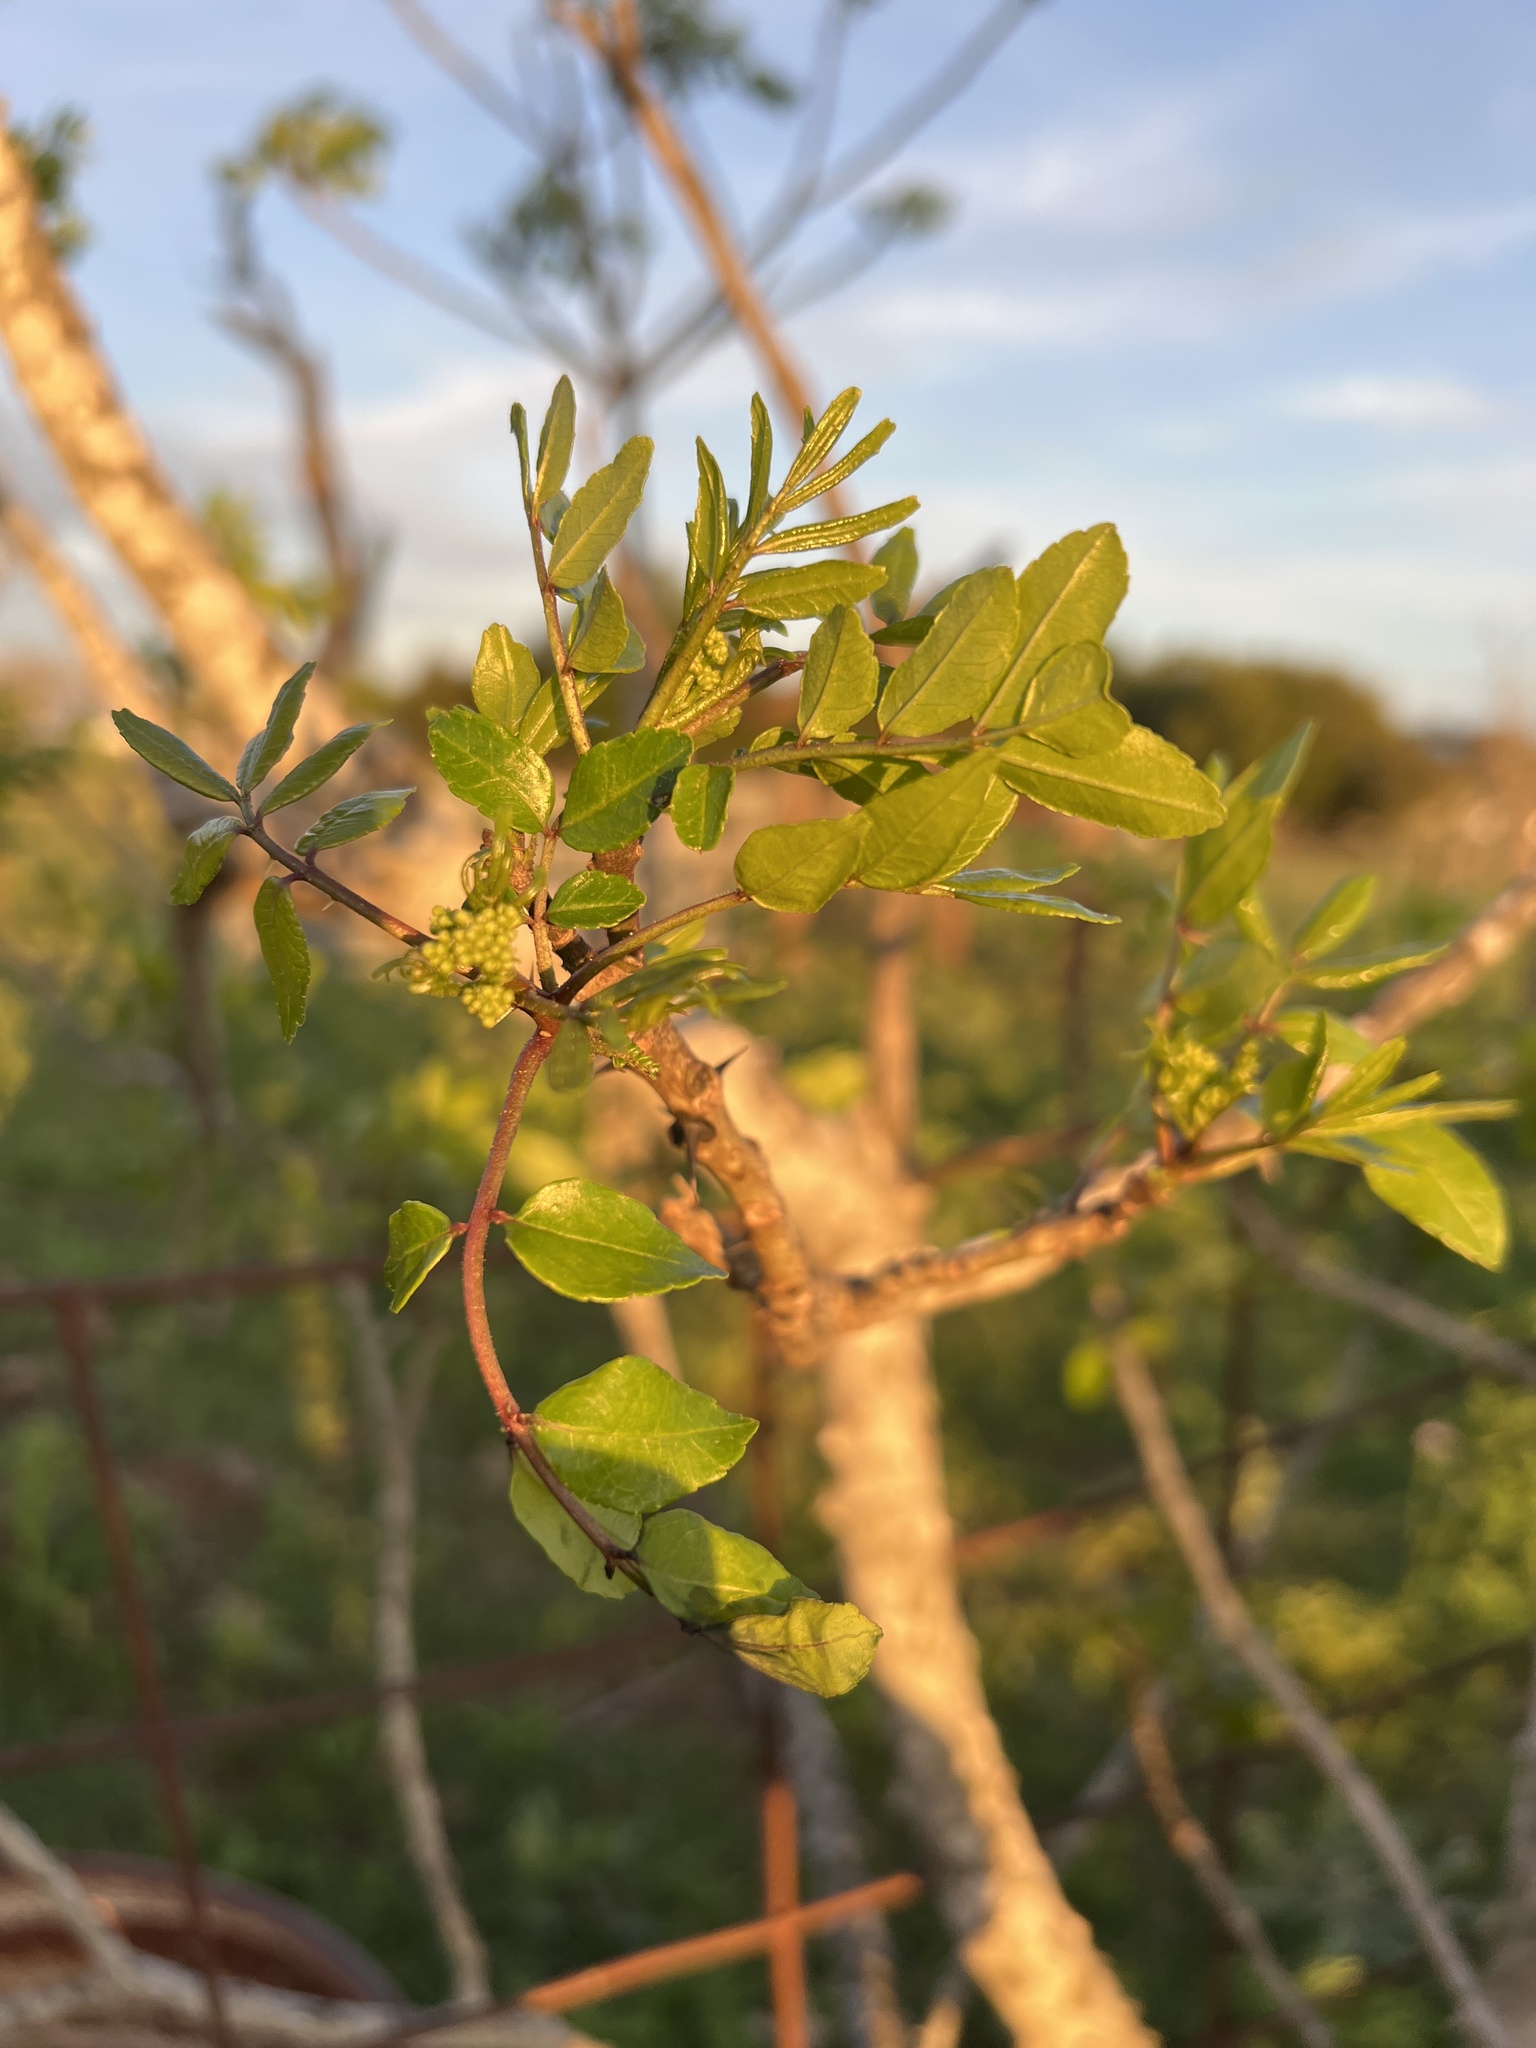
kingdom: Plantae
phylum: Tracheophyta
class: Magnoliopsida
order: Sapindales
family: Rutaceae
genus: Zanthoxylum
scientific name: Zanthoxylum clava-herculis
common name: Hercules'-club
